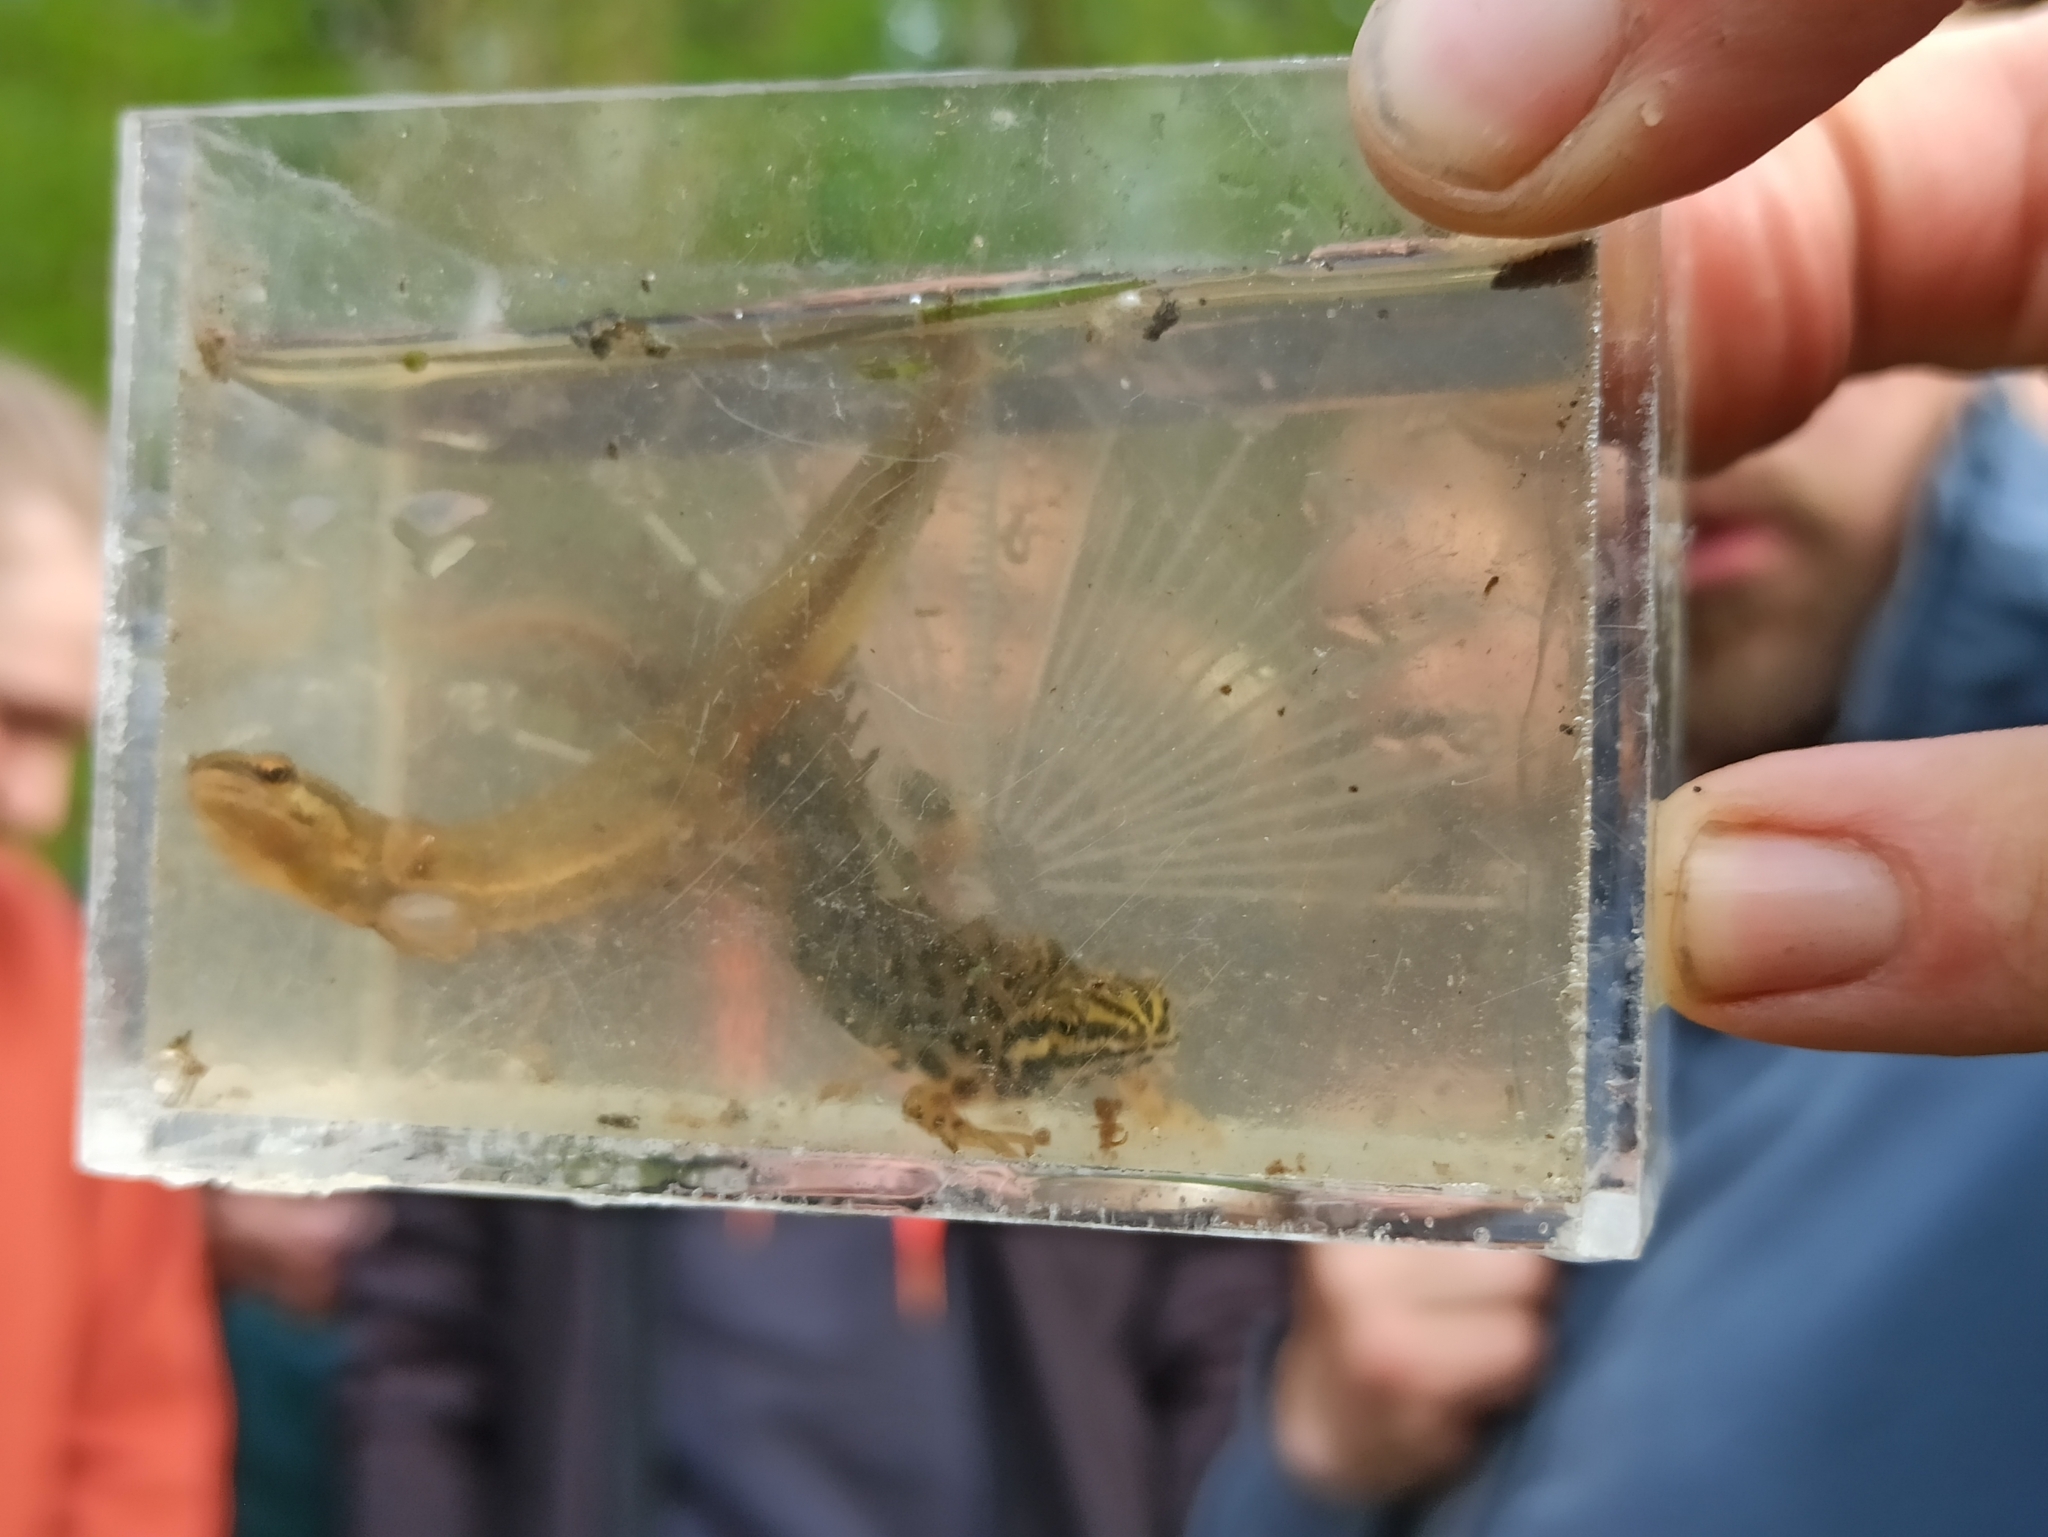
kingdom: Animalia
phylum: Chordata
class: Amphibia
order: Caudata
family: Salamandridae
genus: Lissotriton
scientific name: Lissotriton vulgaris
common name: Smooth newt
